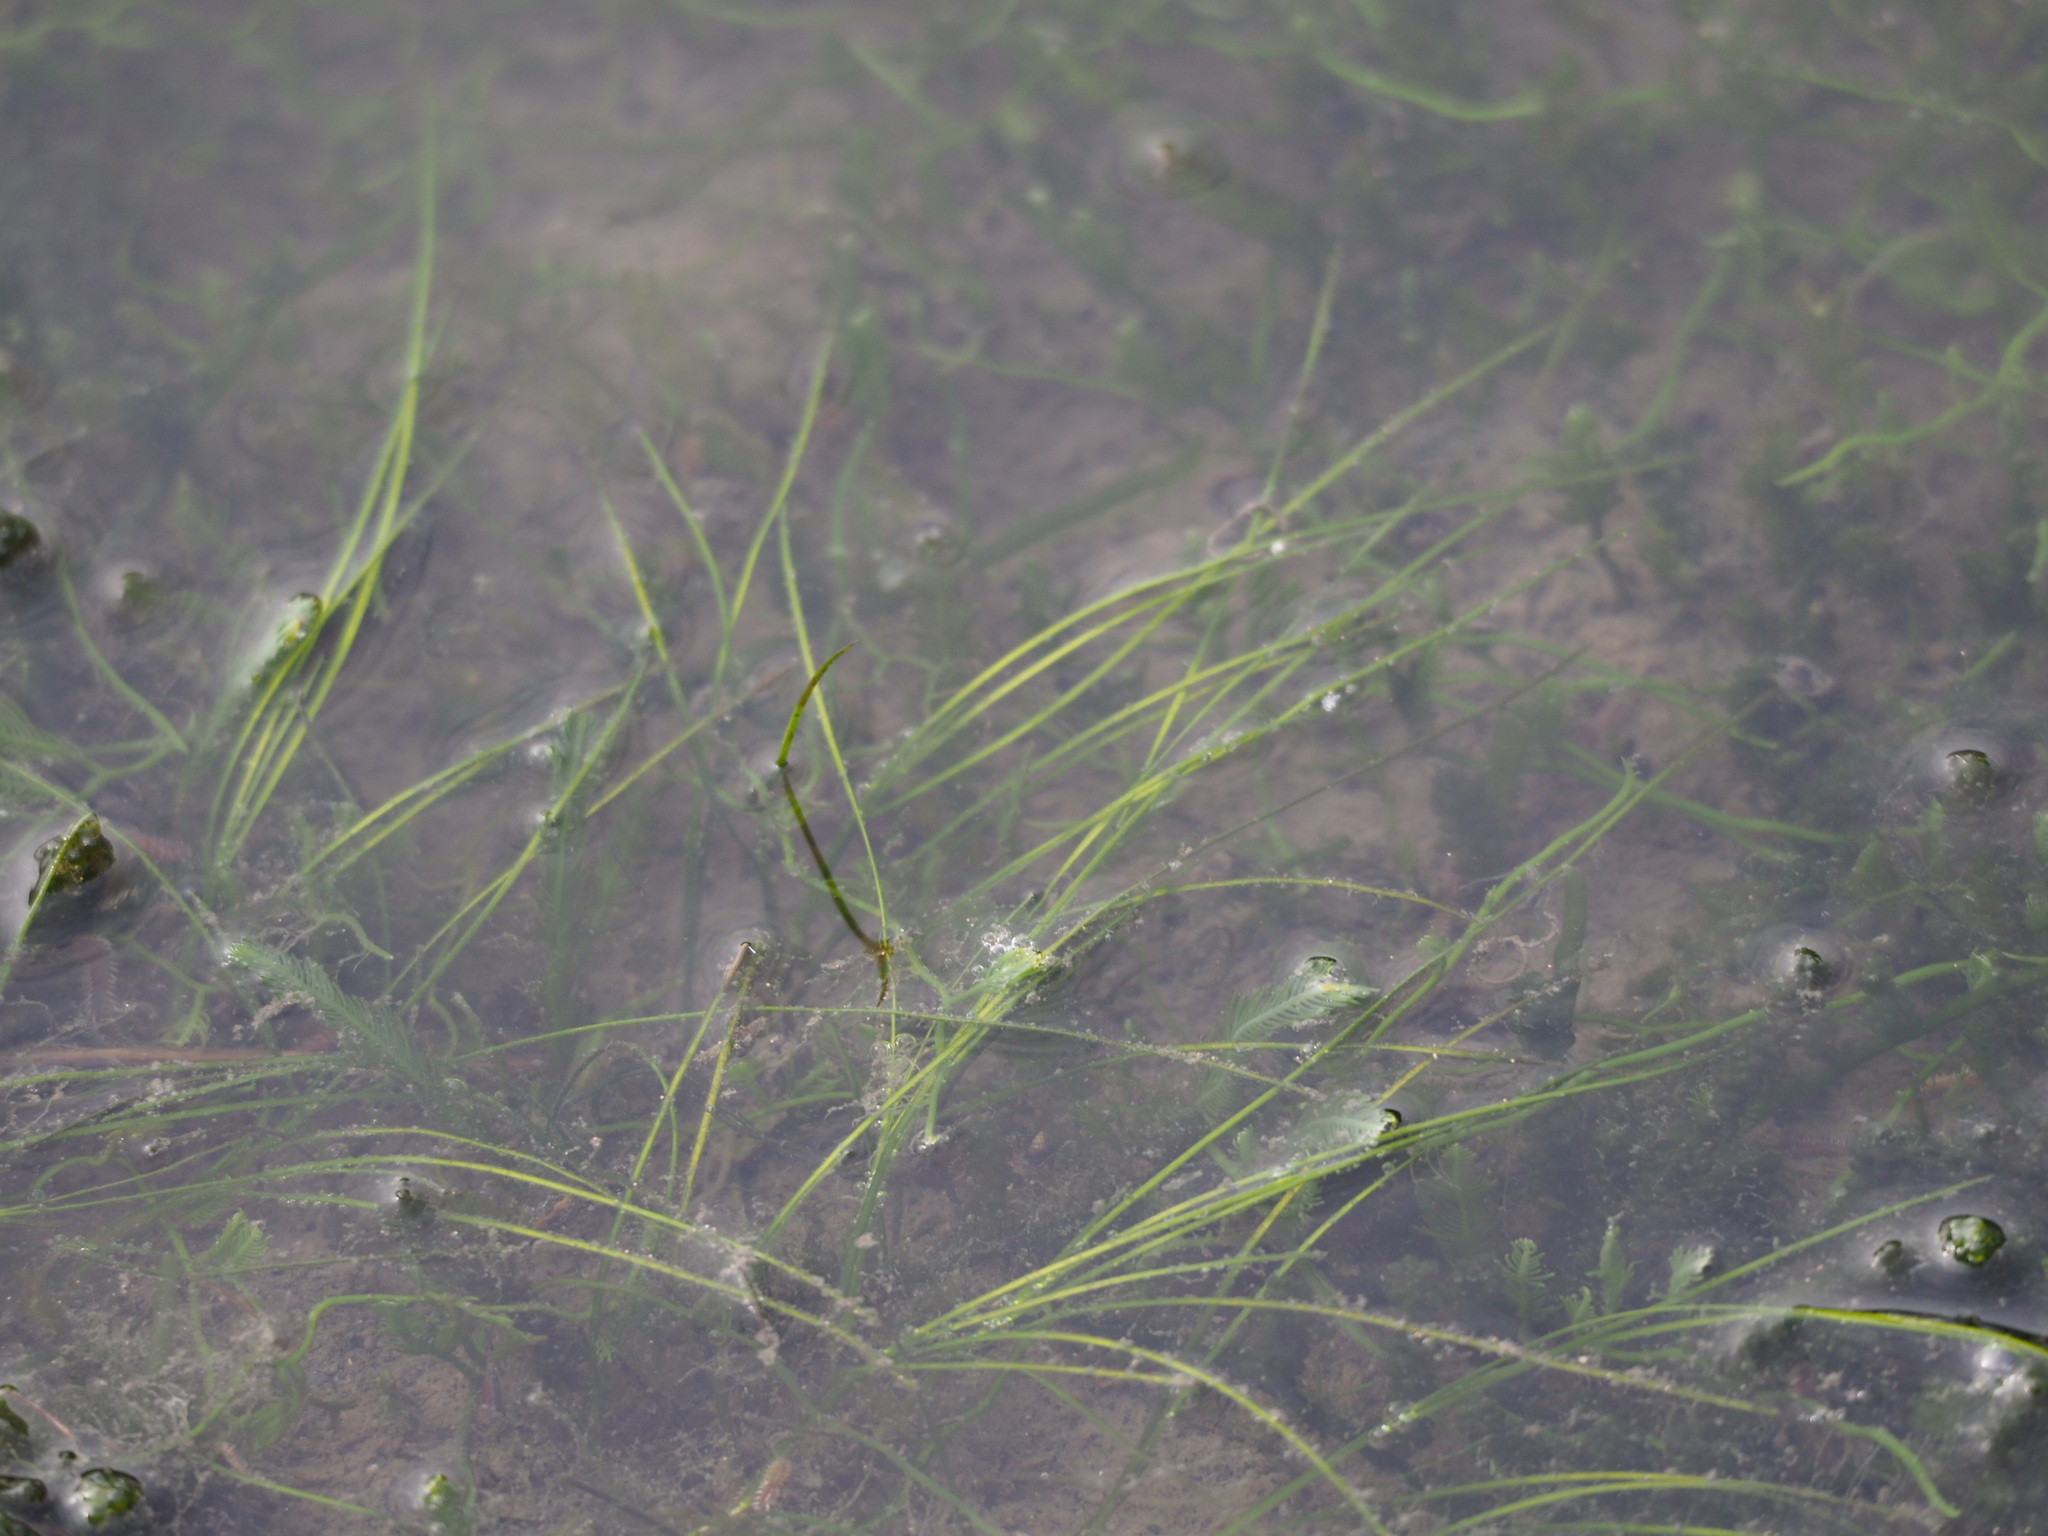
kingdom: Plantae
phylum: Tracheophyta
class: Liliopsida
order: Alismatales
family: Ruppiaceae
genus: Ruppia
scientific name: Ruppia maritima
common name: Beaked tasselweed
